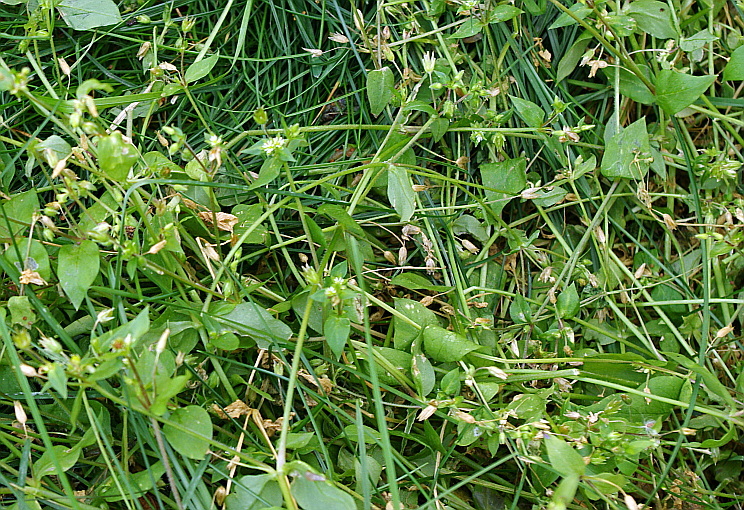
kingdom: Plantae
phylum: Tracheophyta
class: Magnoliopsida
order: Caryophyllales
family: Caryophyllaceae
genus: Stellaria
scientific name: Stellaria media
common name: Common chickweed
